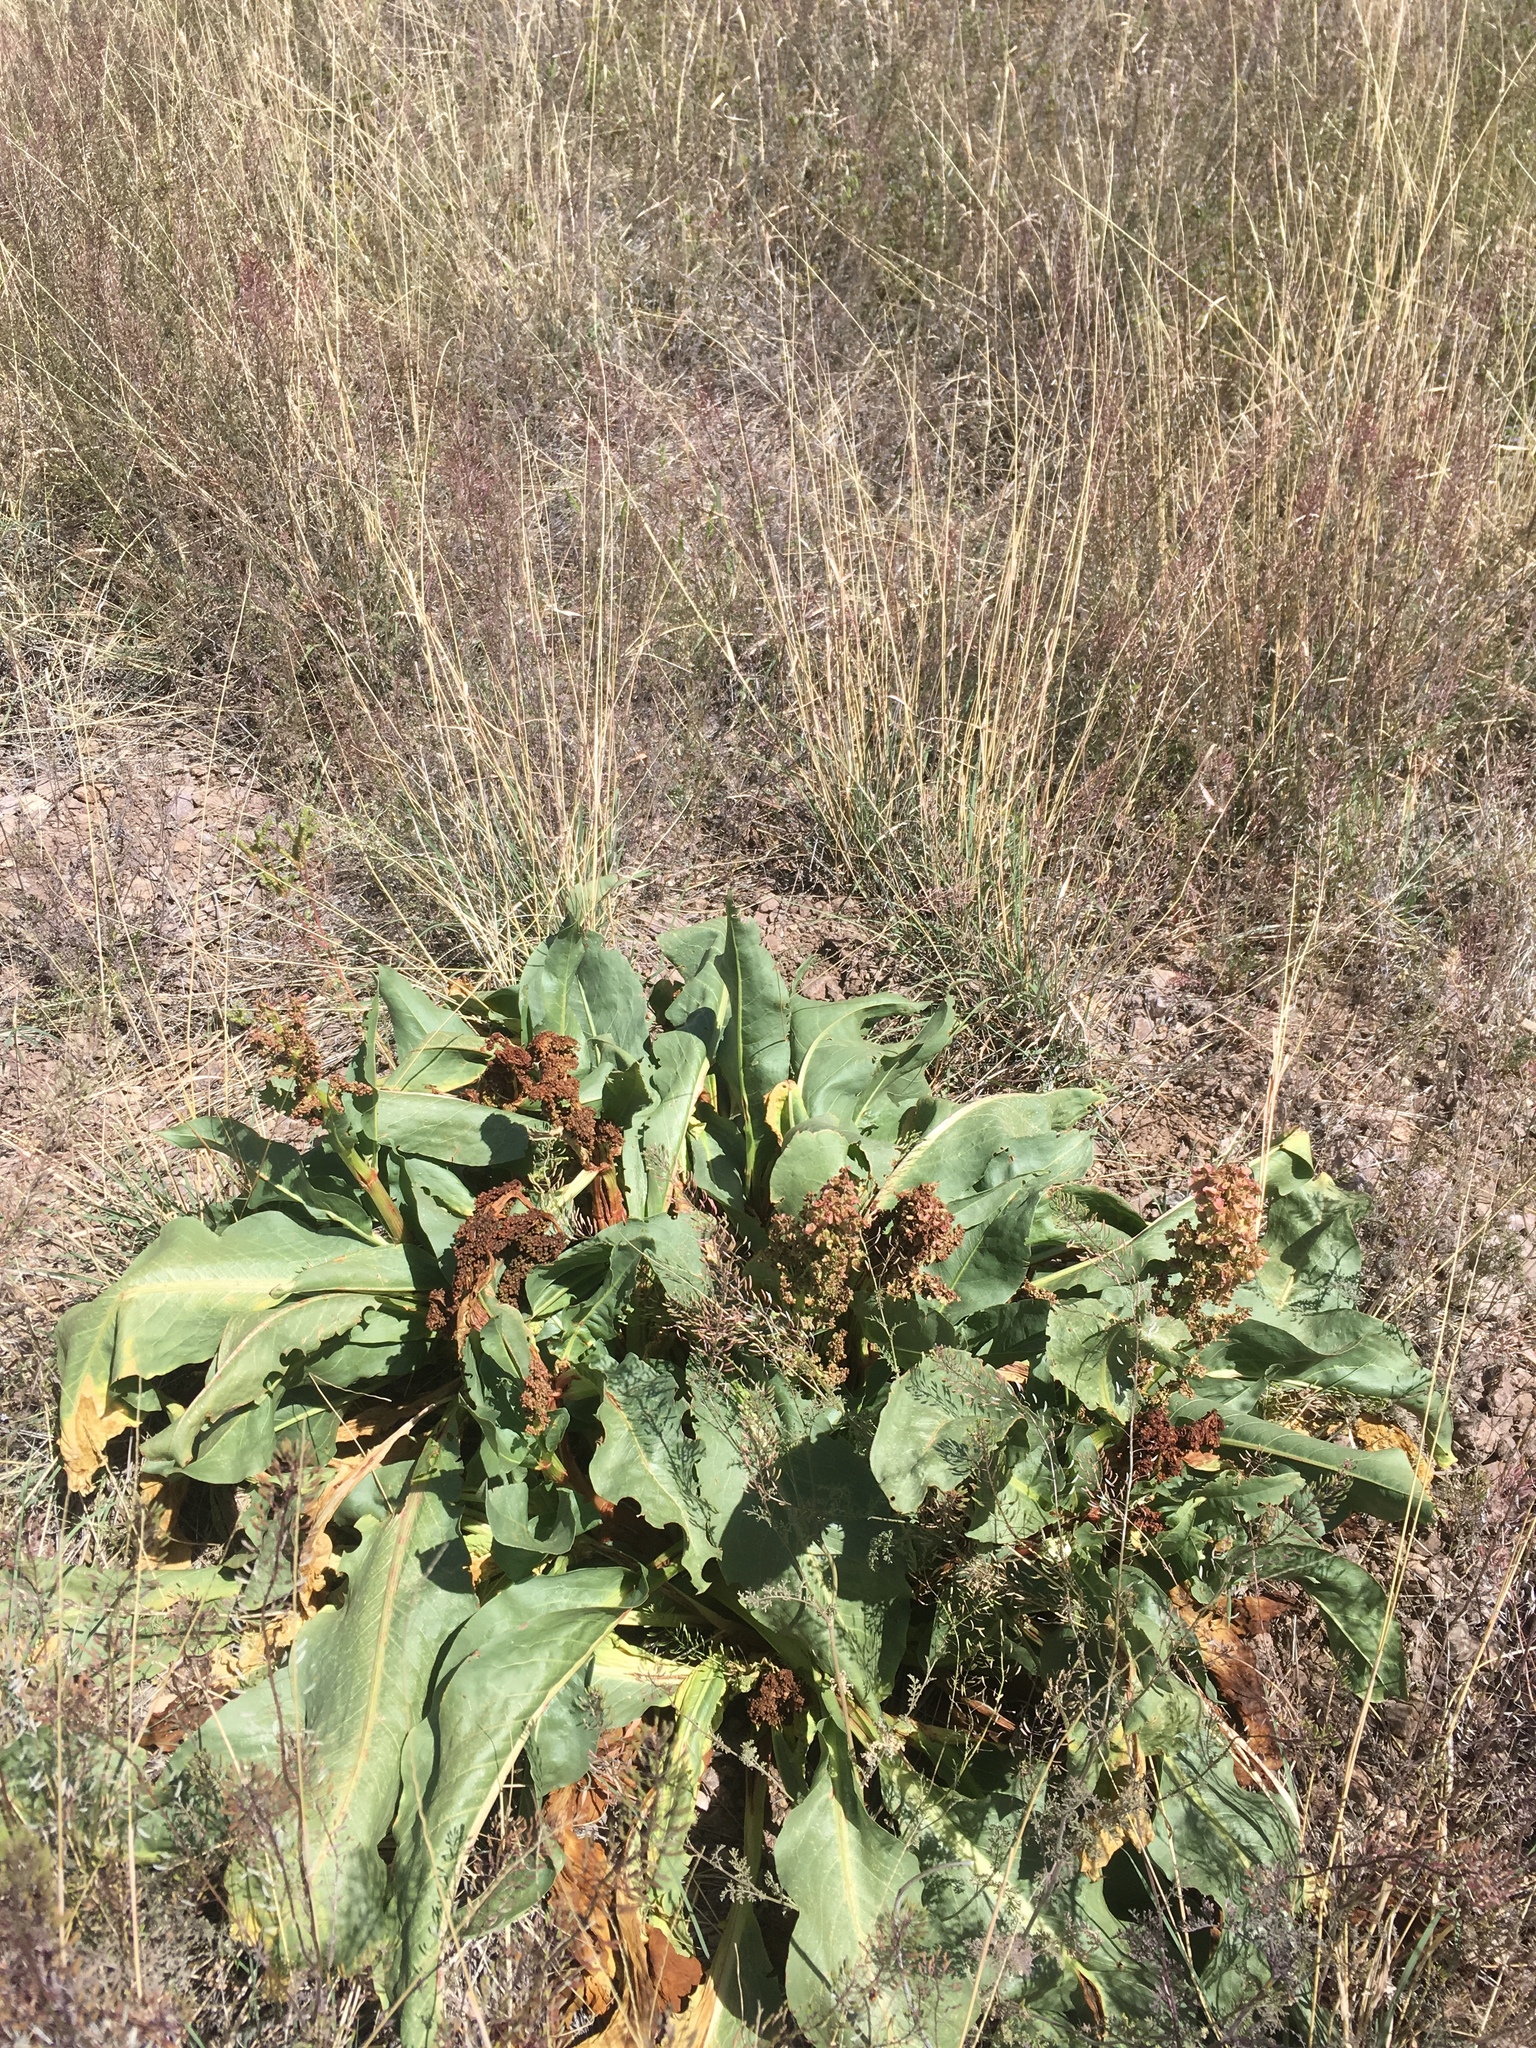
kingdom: Plantae
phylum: Tracheophyta
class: Magnoliopsida
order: Caryophyllales
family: Polygonaceae
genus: Rumex
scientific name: Rumex hymenosepalus
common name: Ganagra
